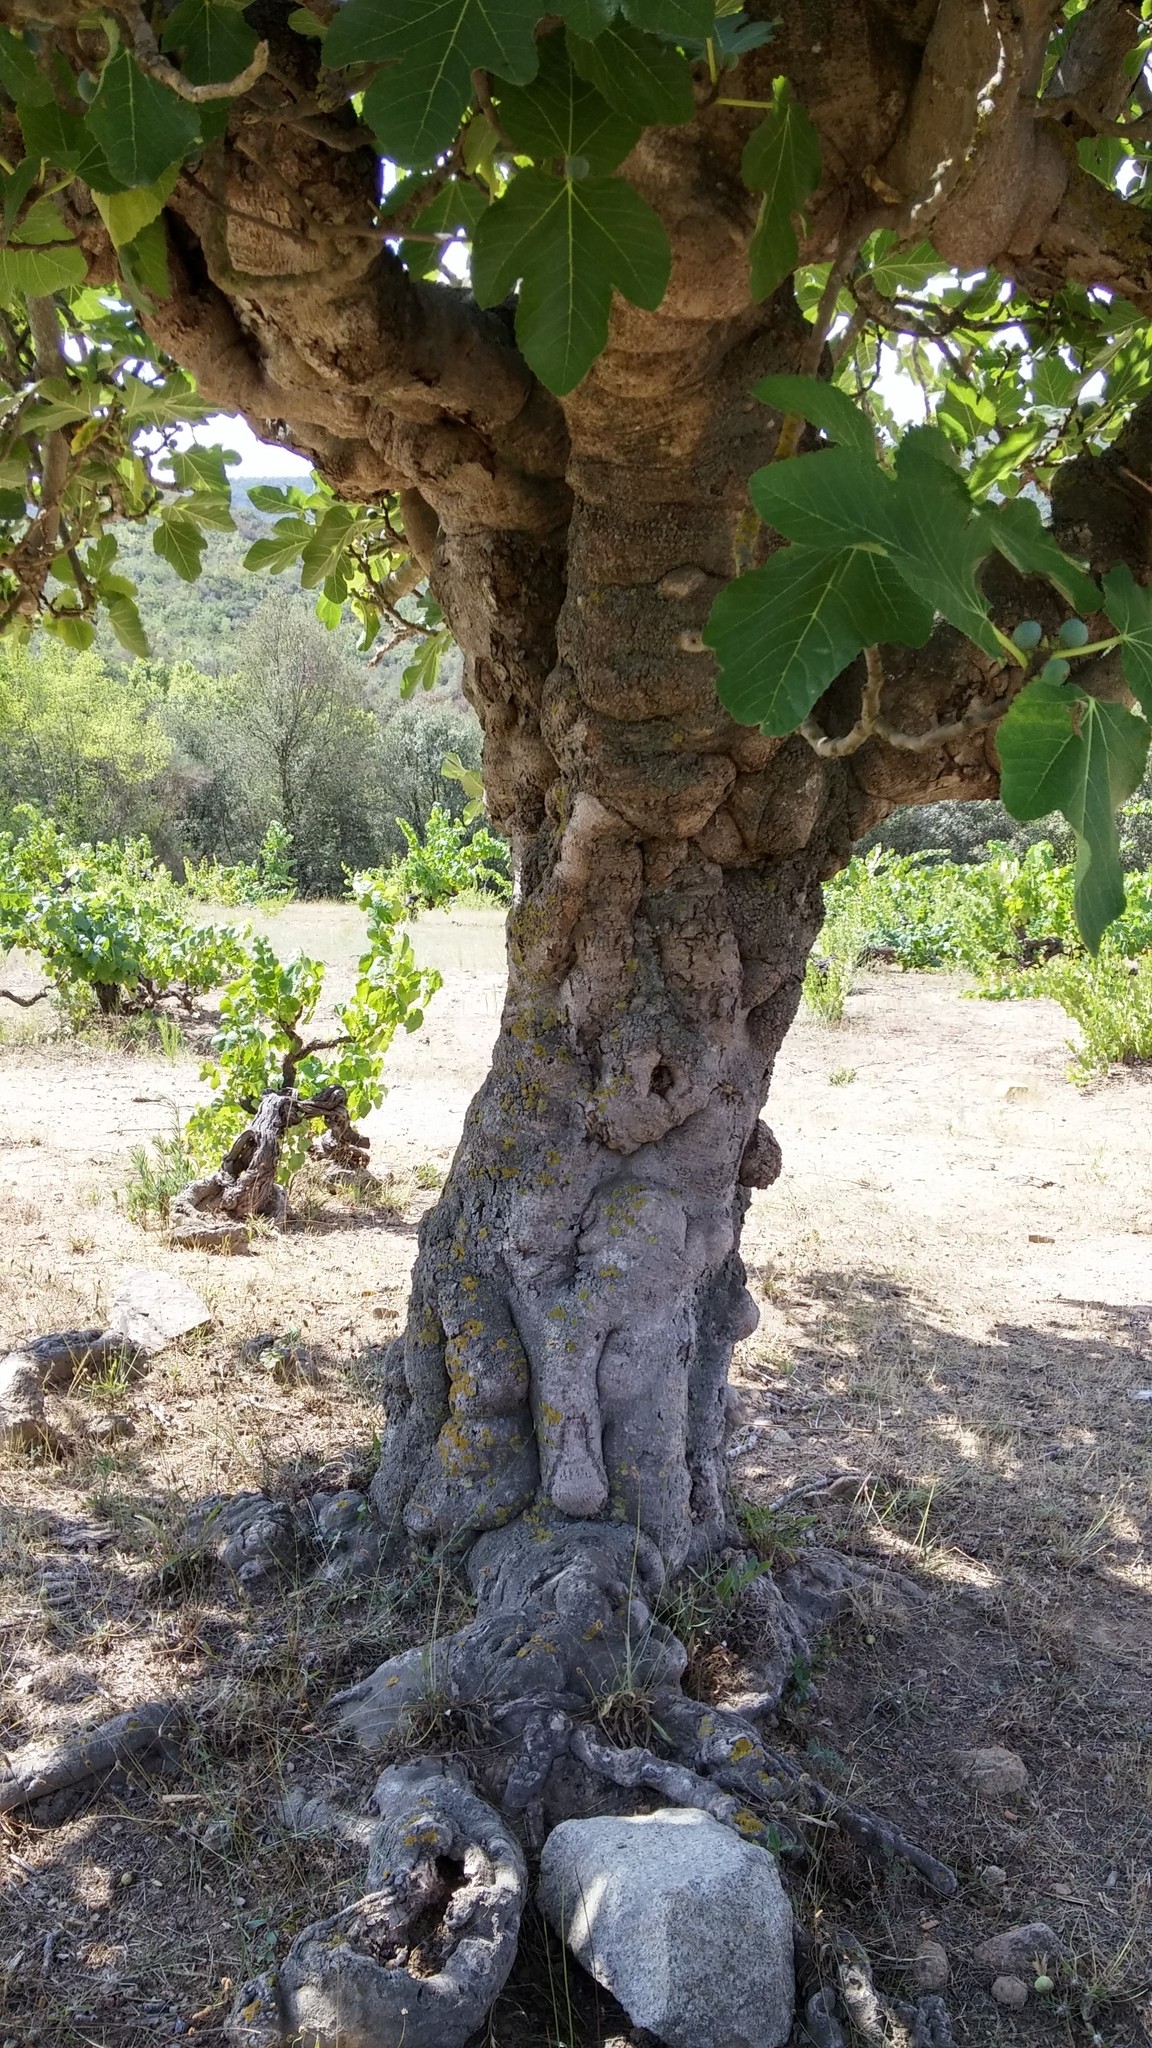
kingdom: Plantae
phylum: Tracheophyta
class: Magnoliopsida
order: Rosales
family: Moraceae
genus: Ficus
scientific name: Ficus carica
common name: Fig
